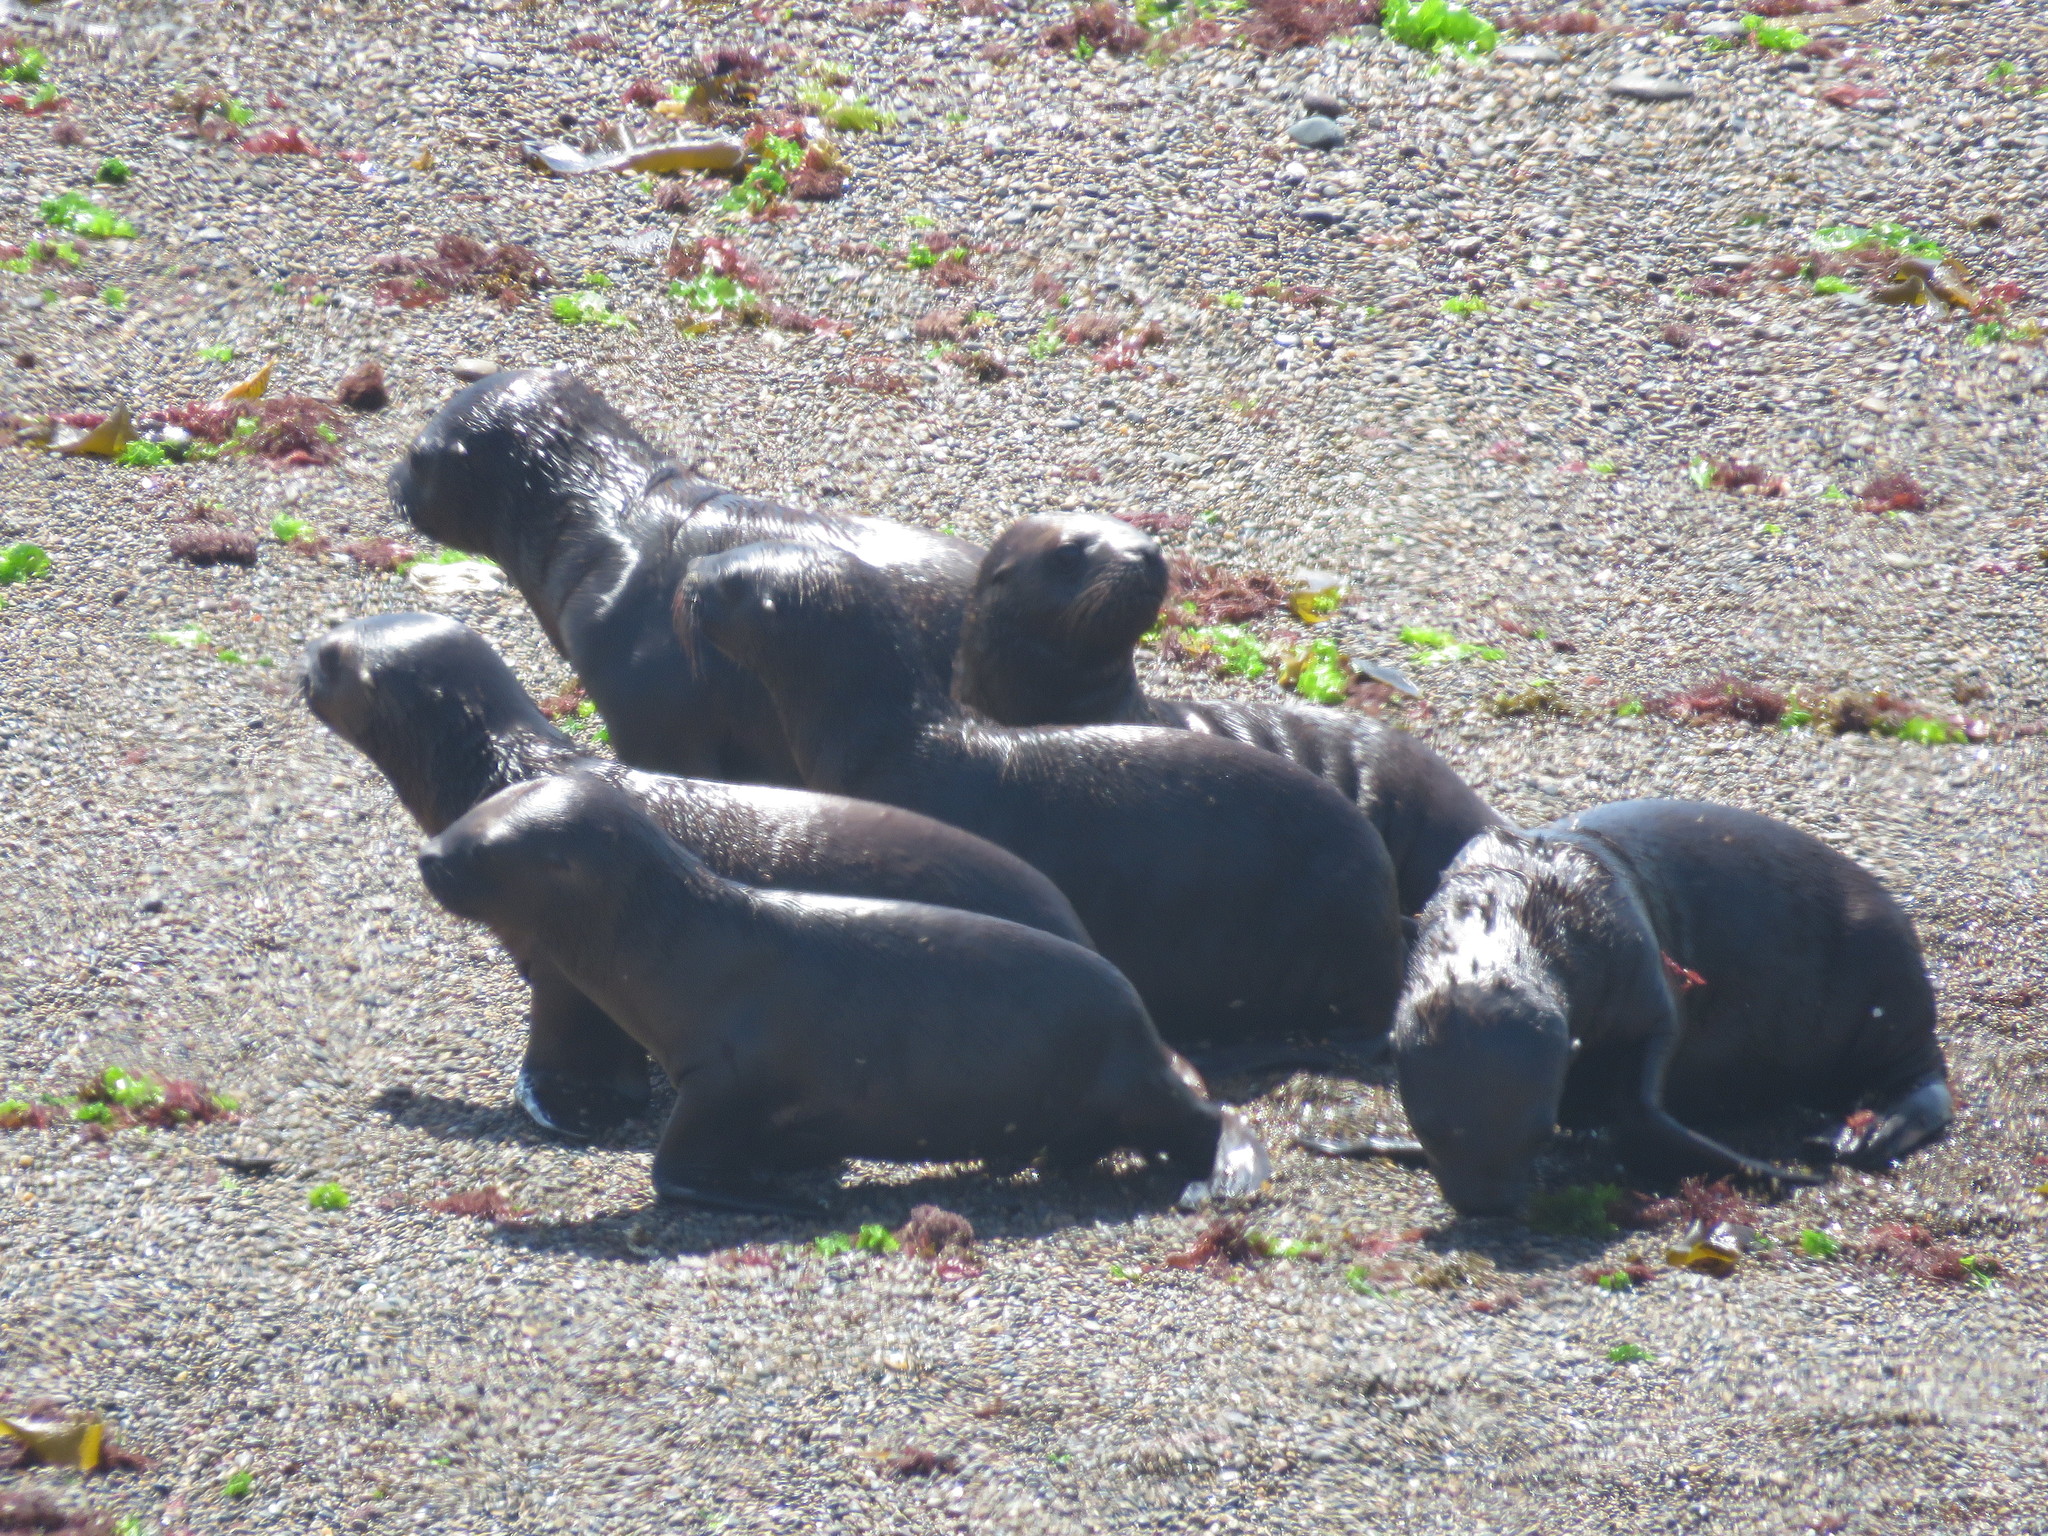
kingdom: Animalia
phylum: Chordata
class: Mammalia
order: Carnivora
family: Otariidae
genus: Otaria
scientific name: Otaria byronia
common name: South american sea lion
